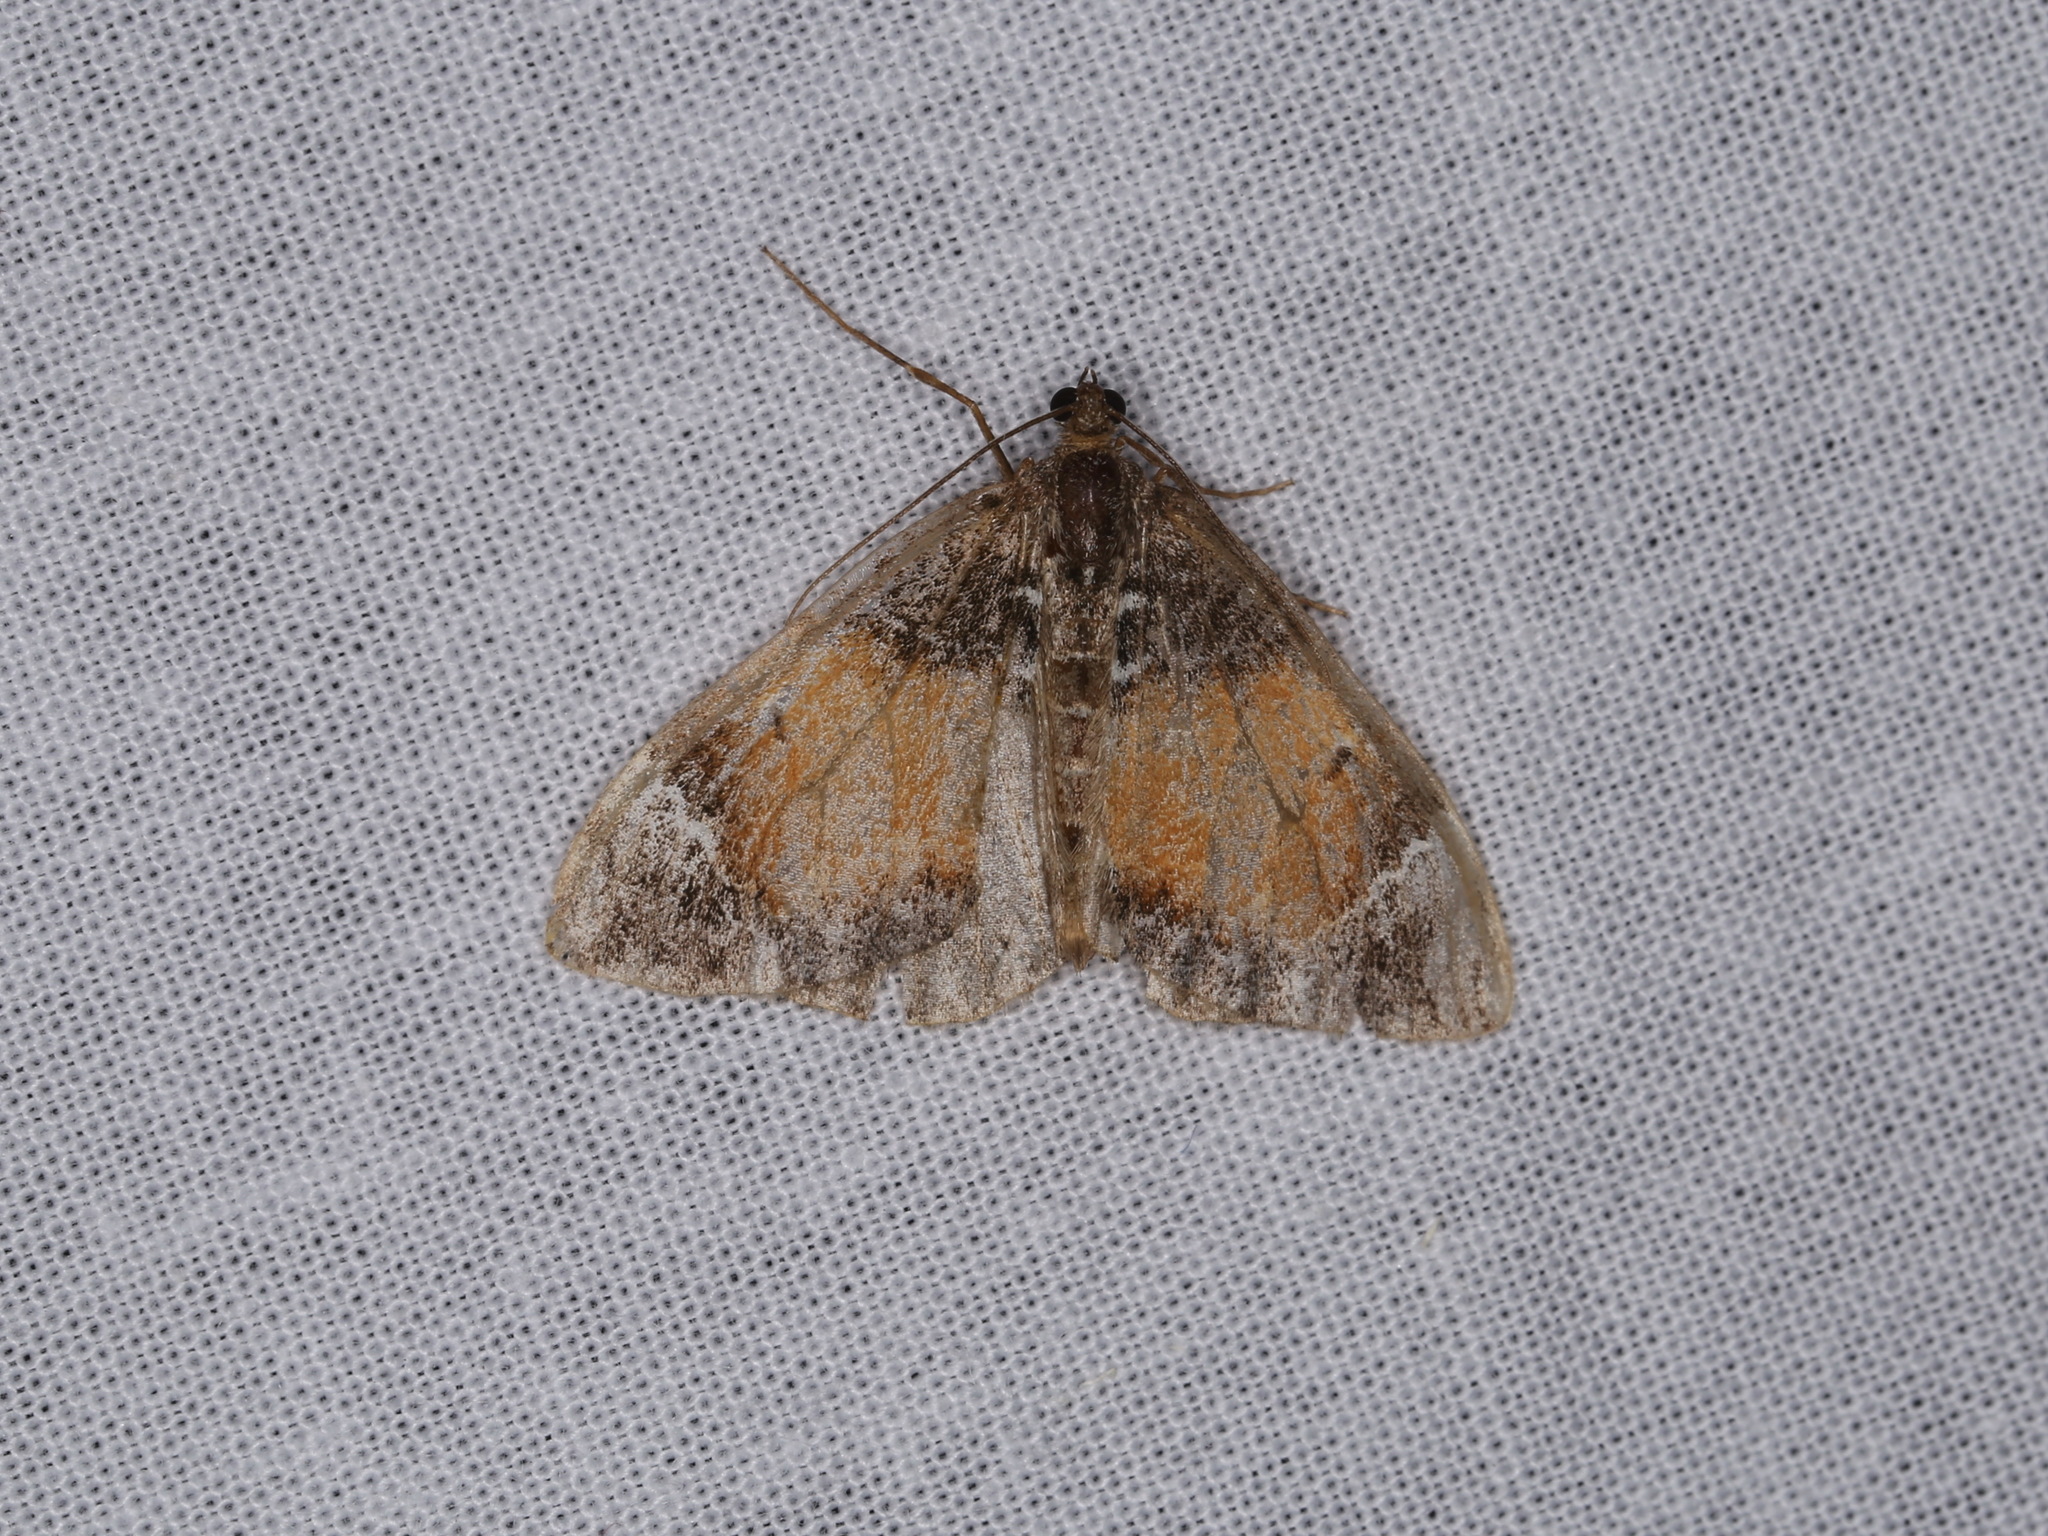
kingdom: Animalia
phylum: Arthropoda
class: Insecta
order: Lepidoptera
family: Geometridae
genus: Dysstroma
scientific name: Dysstroma truncata
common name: Common marbled carpet
